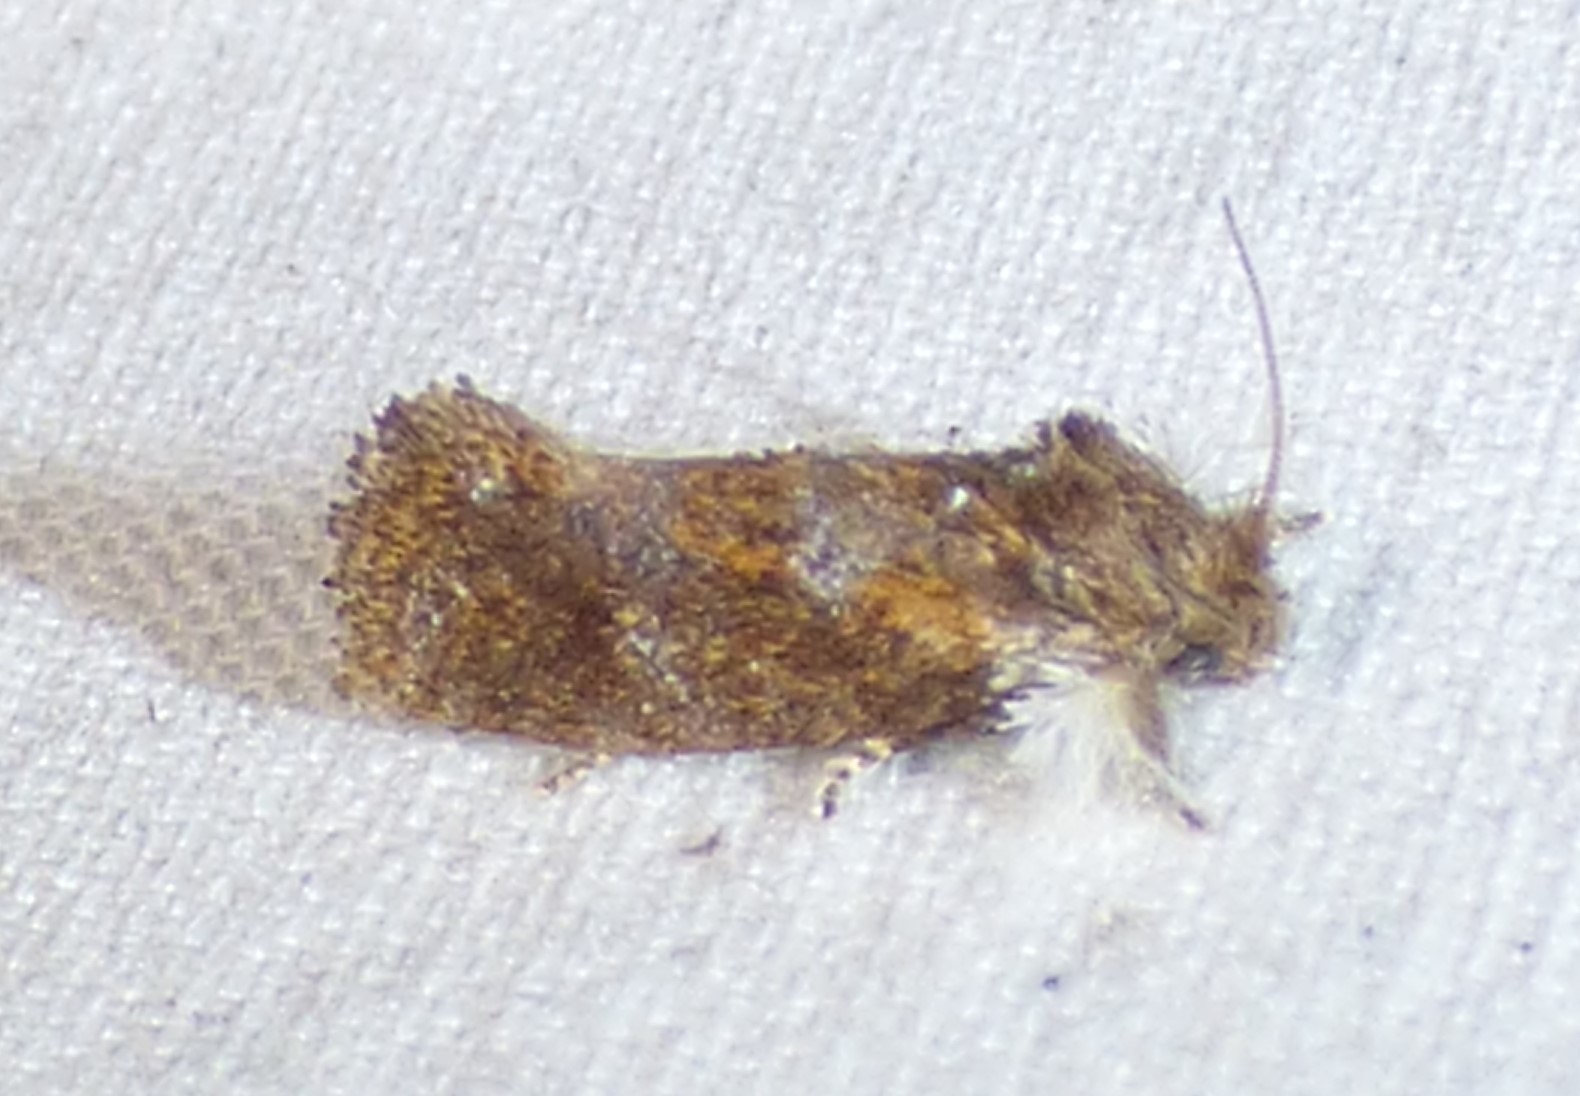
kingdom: Animalia
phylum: Arthropoda
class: Insecta
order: Lepidoptera
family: Tineidae
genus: Acrolophus
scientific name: Acrolophus panamae
